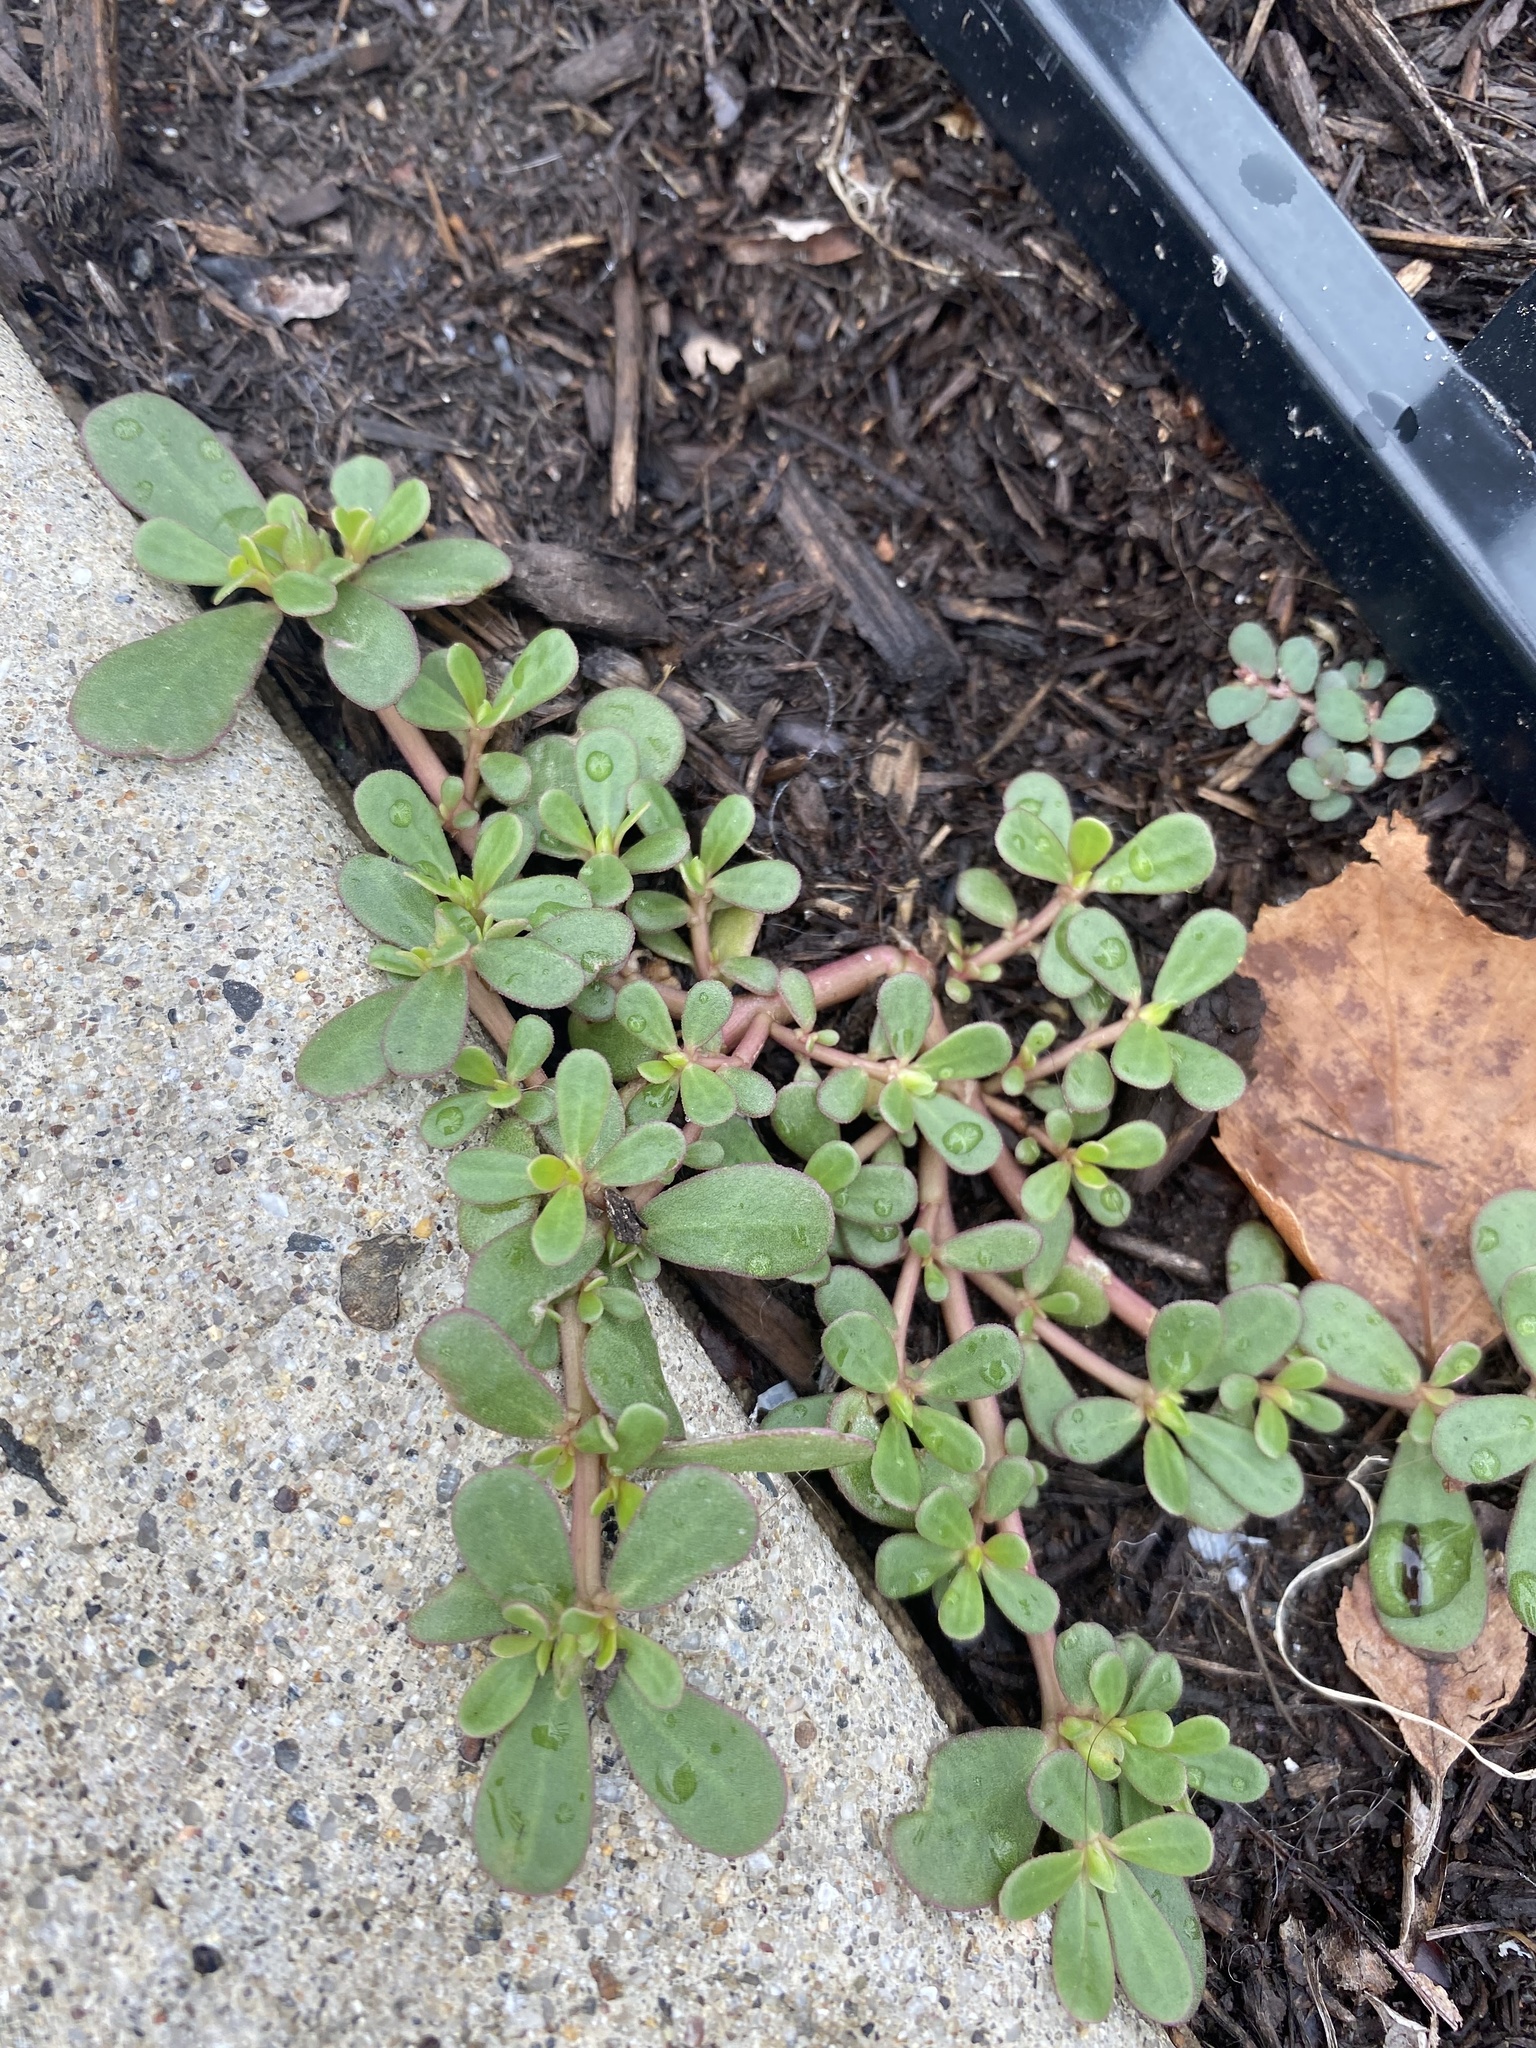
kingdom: Plantae
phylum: Tracheophyta
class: Magnoliopsida
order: Caryophyllales
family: Portulacaceae
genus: Portulaca
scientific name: Portulaca oleracea
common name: Common purslane
